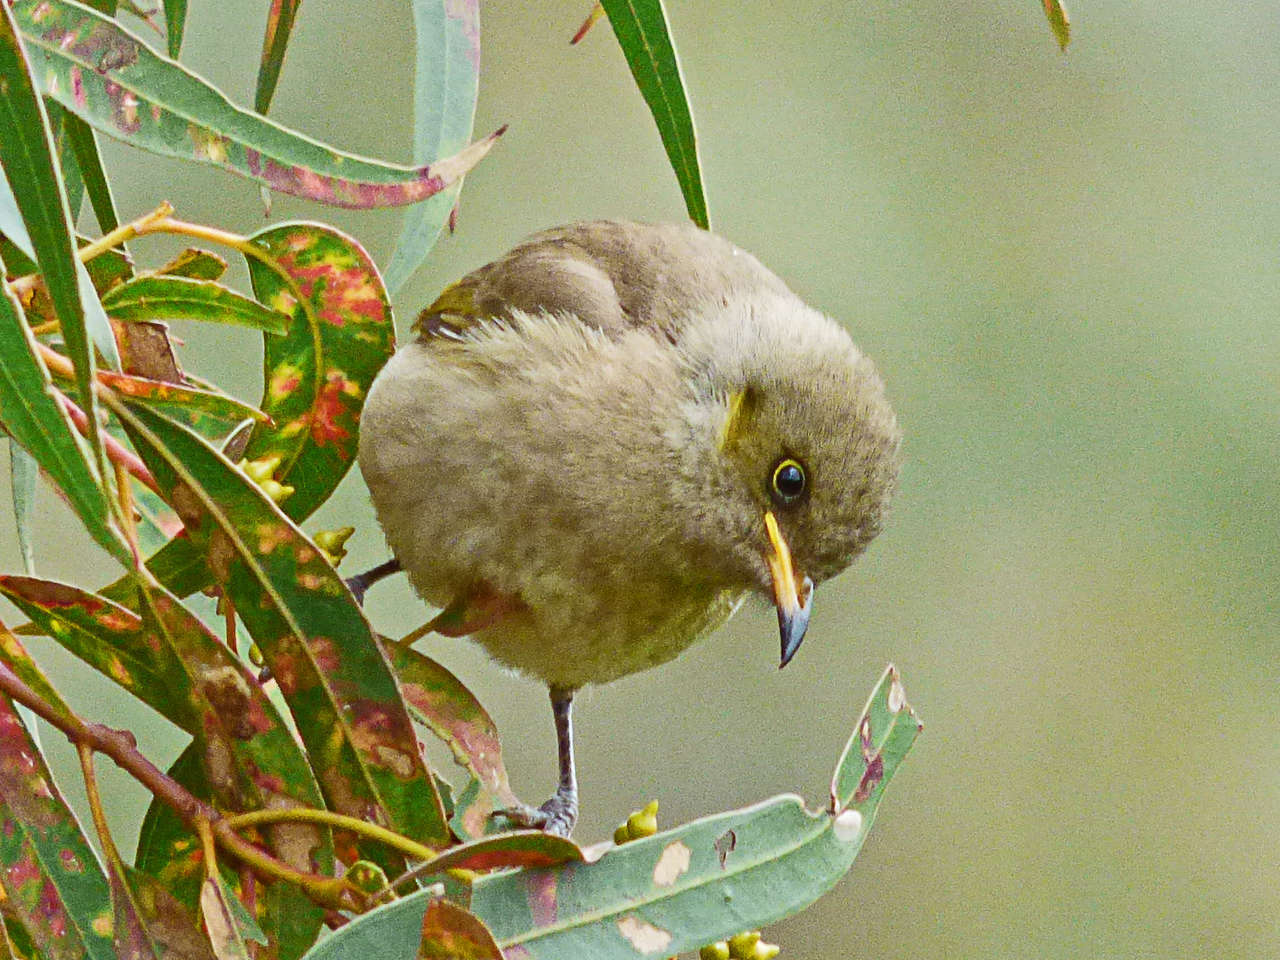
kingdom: Animalia
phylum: Chordata
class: Aves
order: Passeriformes
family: Meliphagidae
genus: Ptilotula
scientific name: Ptilotula fusca
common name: Fuscous honeyeater
